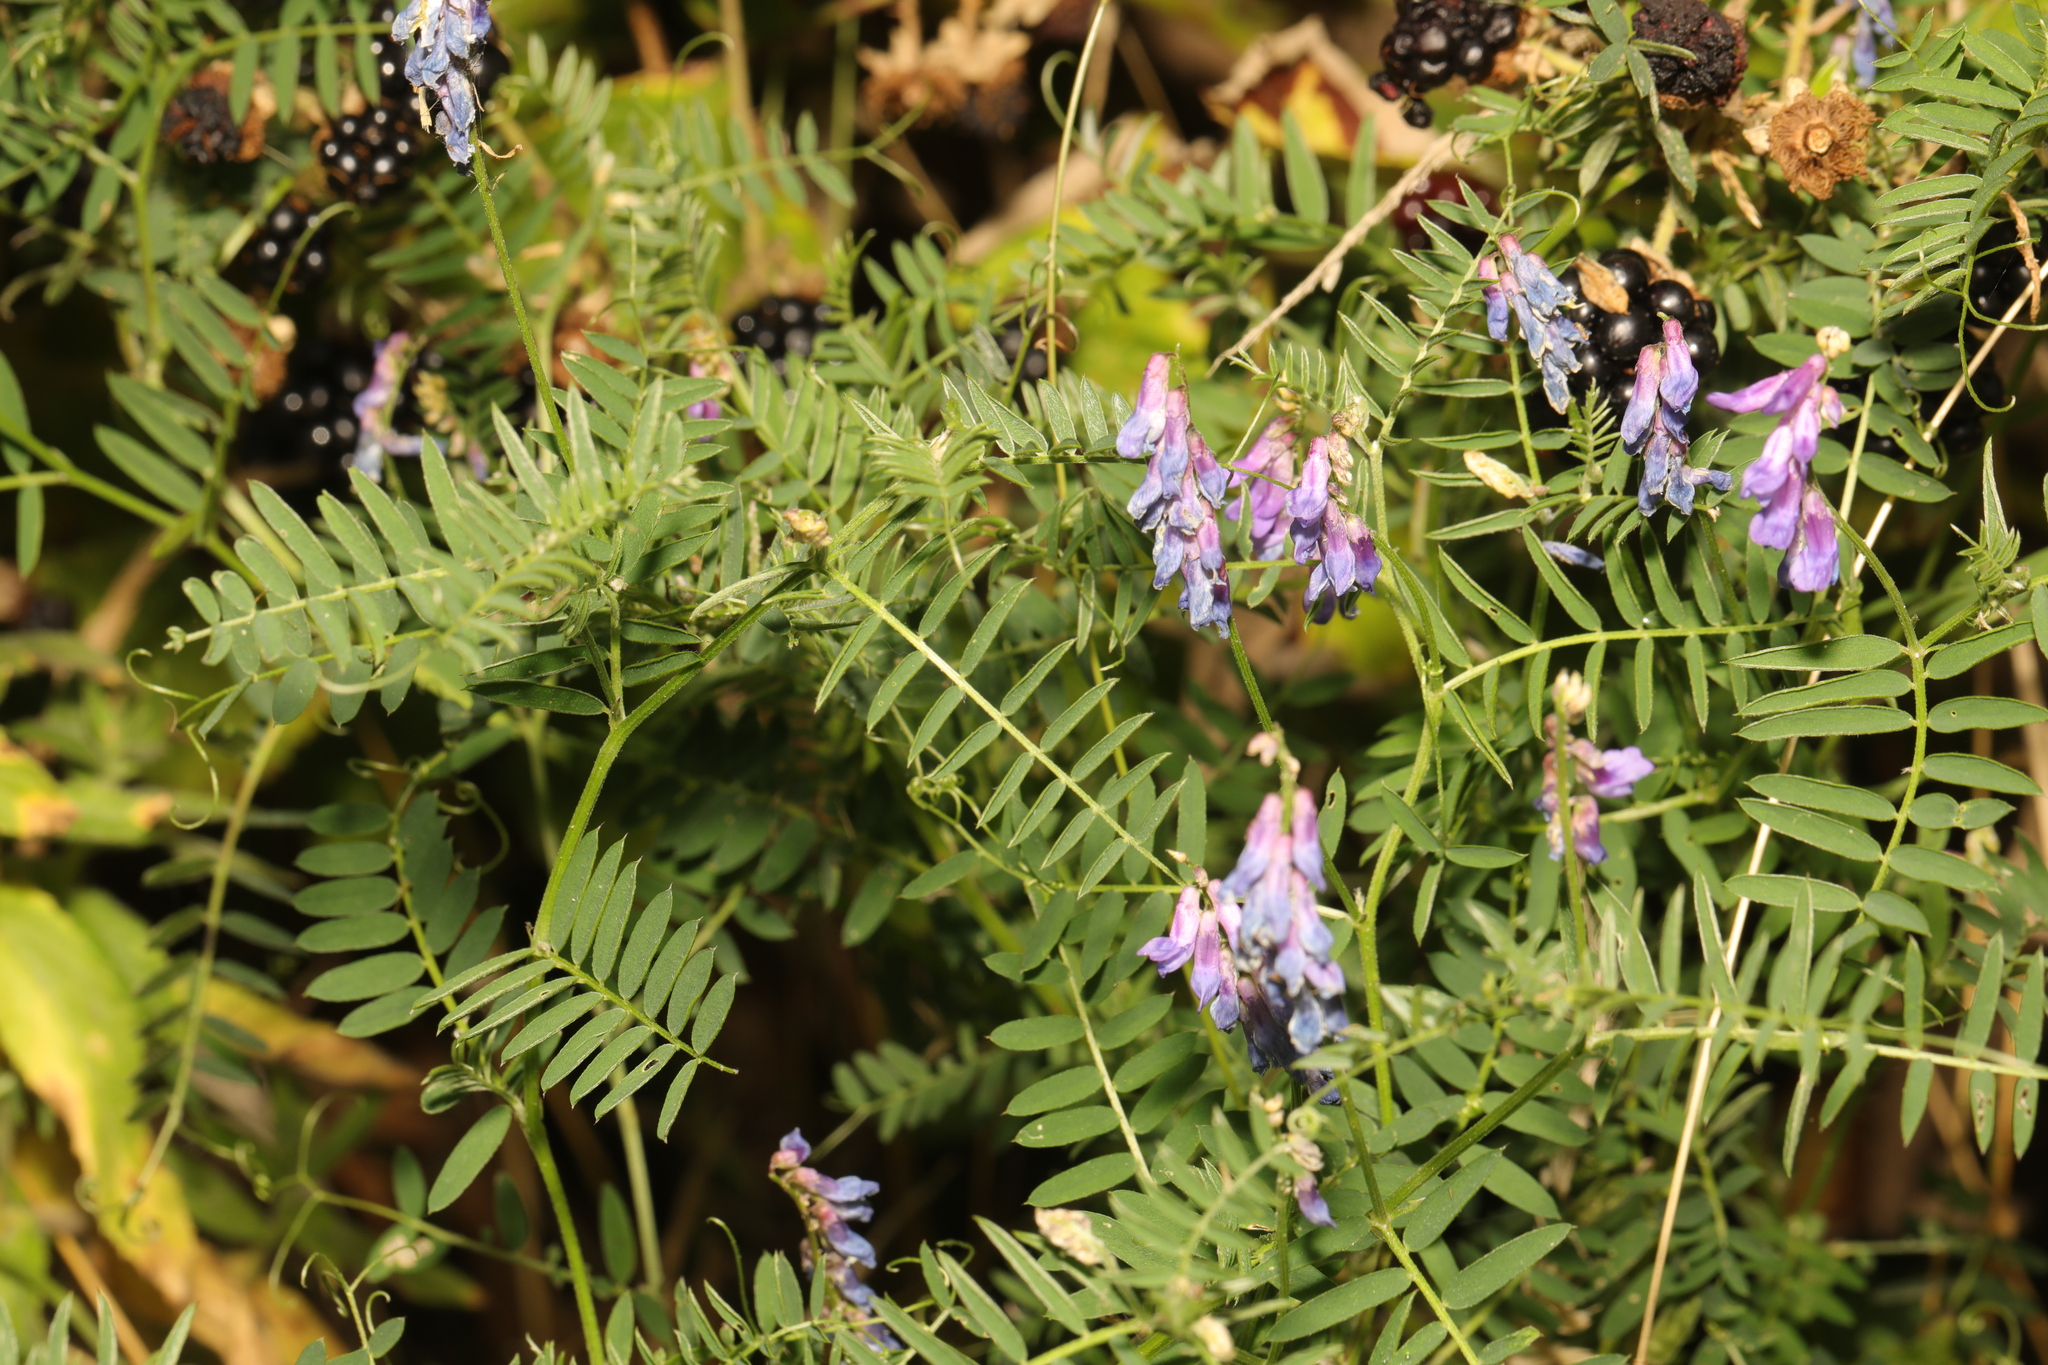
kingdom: Plantae
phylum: Tracheophyta
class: Magnoliopsida
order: Fabales
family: Fabaceae
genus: Vicia
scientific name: Vicia cracca
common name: Bird vetch
